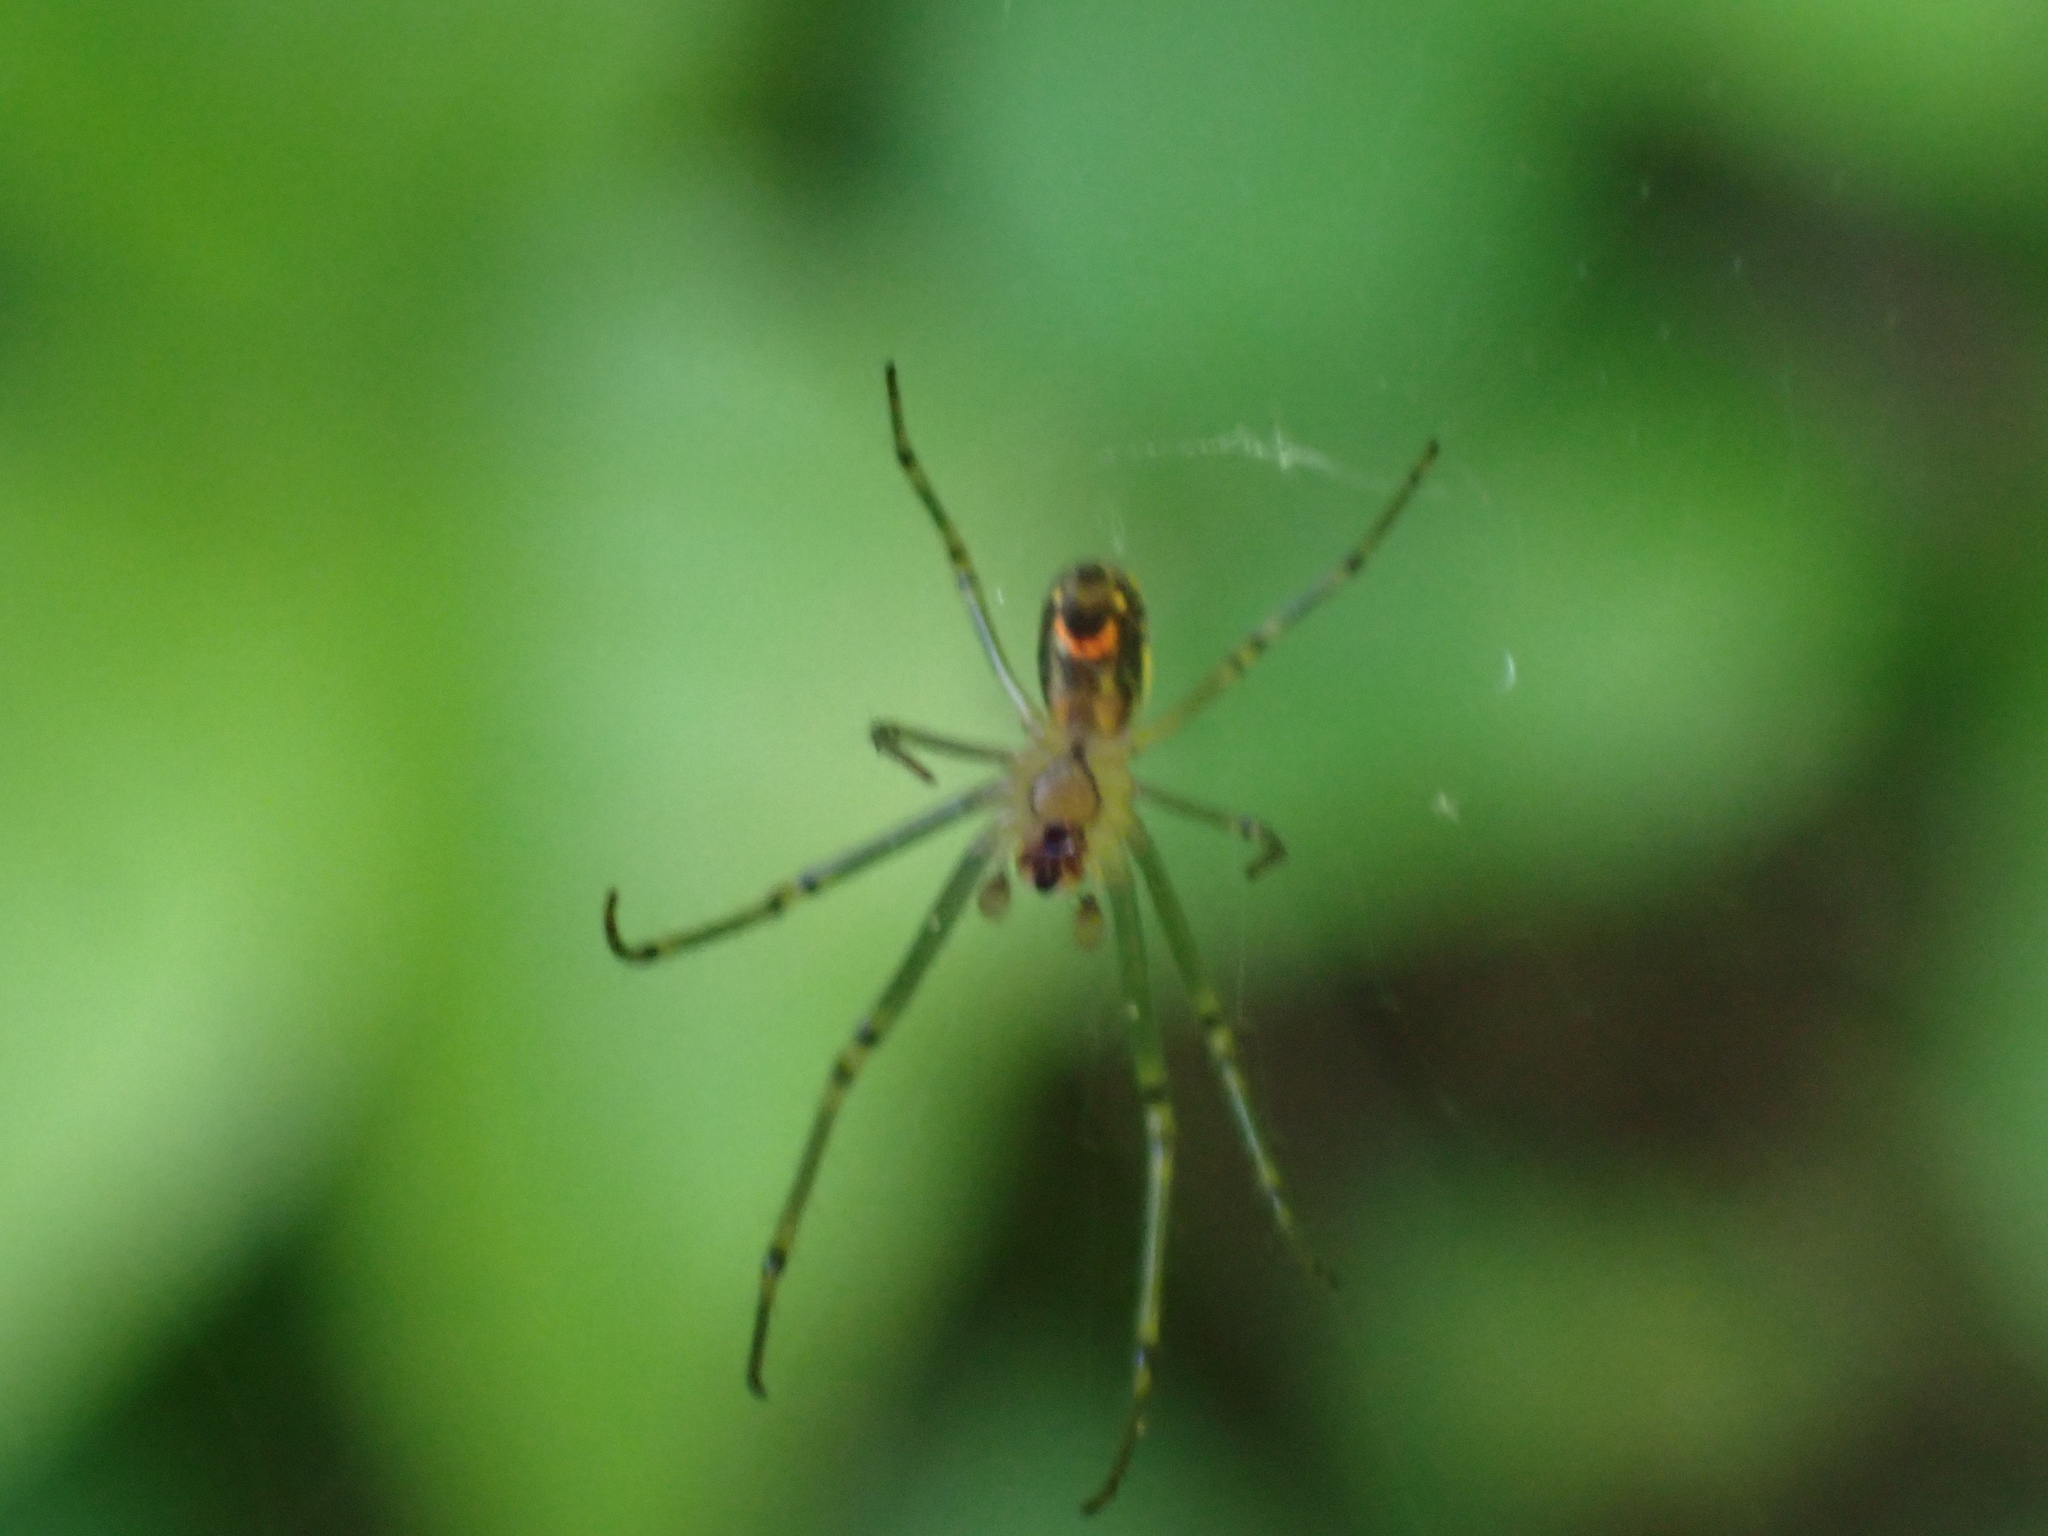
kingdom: Animalia
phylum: Arthropoda
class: Arachnida
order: Araneae
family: Tetragnathidae
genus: Leucauge
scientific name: Leucauge venusta
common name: Longjawed orb weavers
